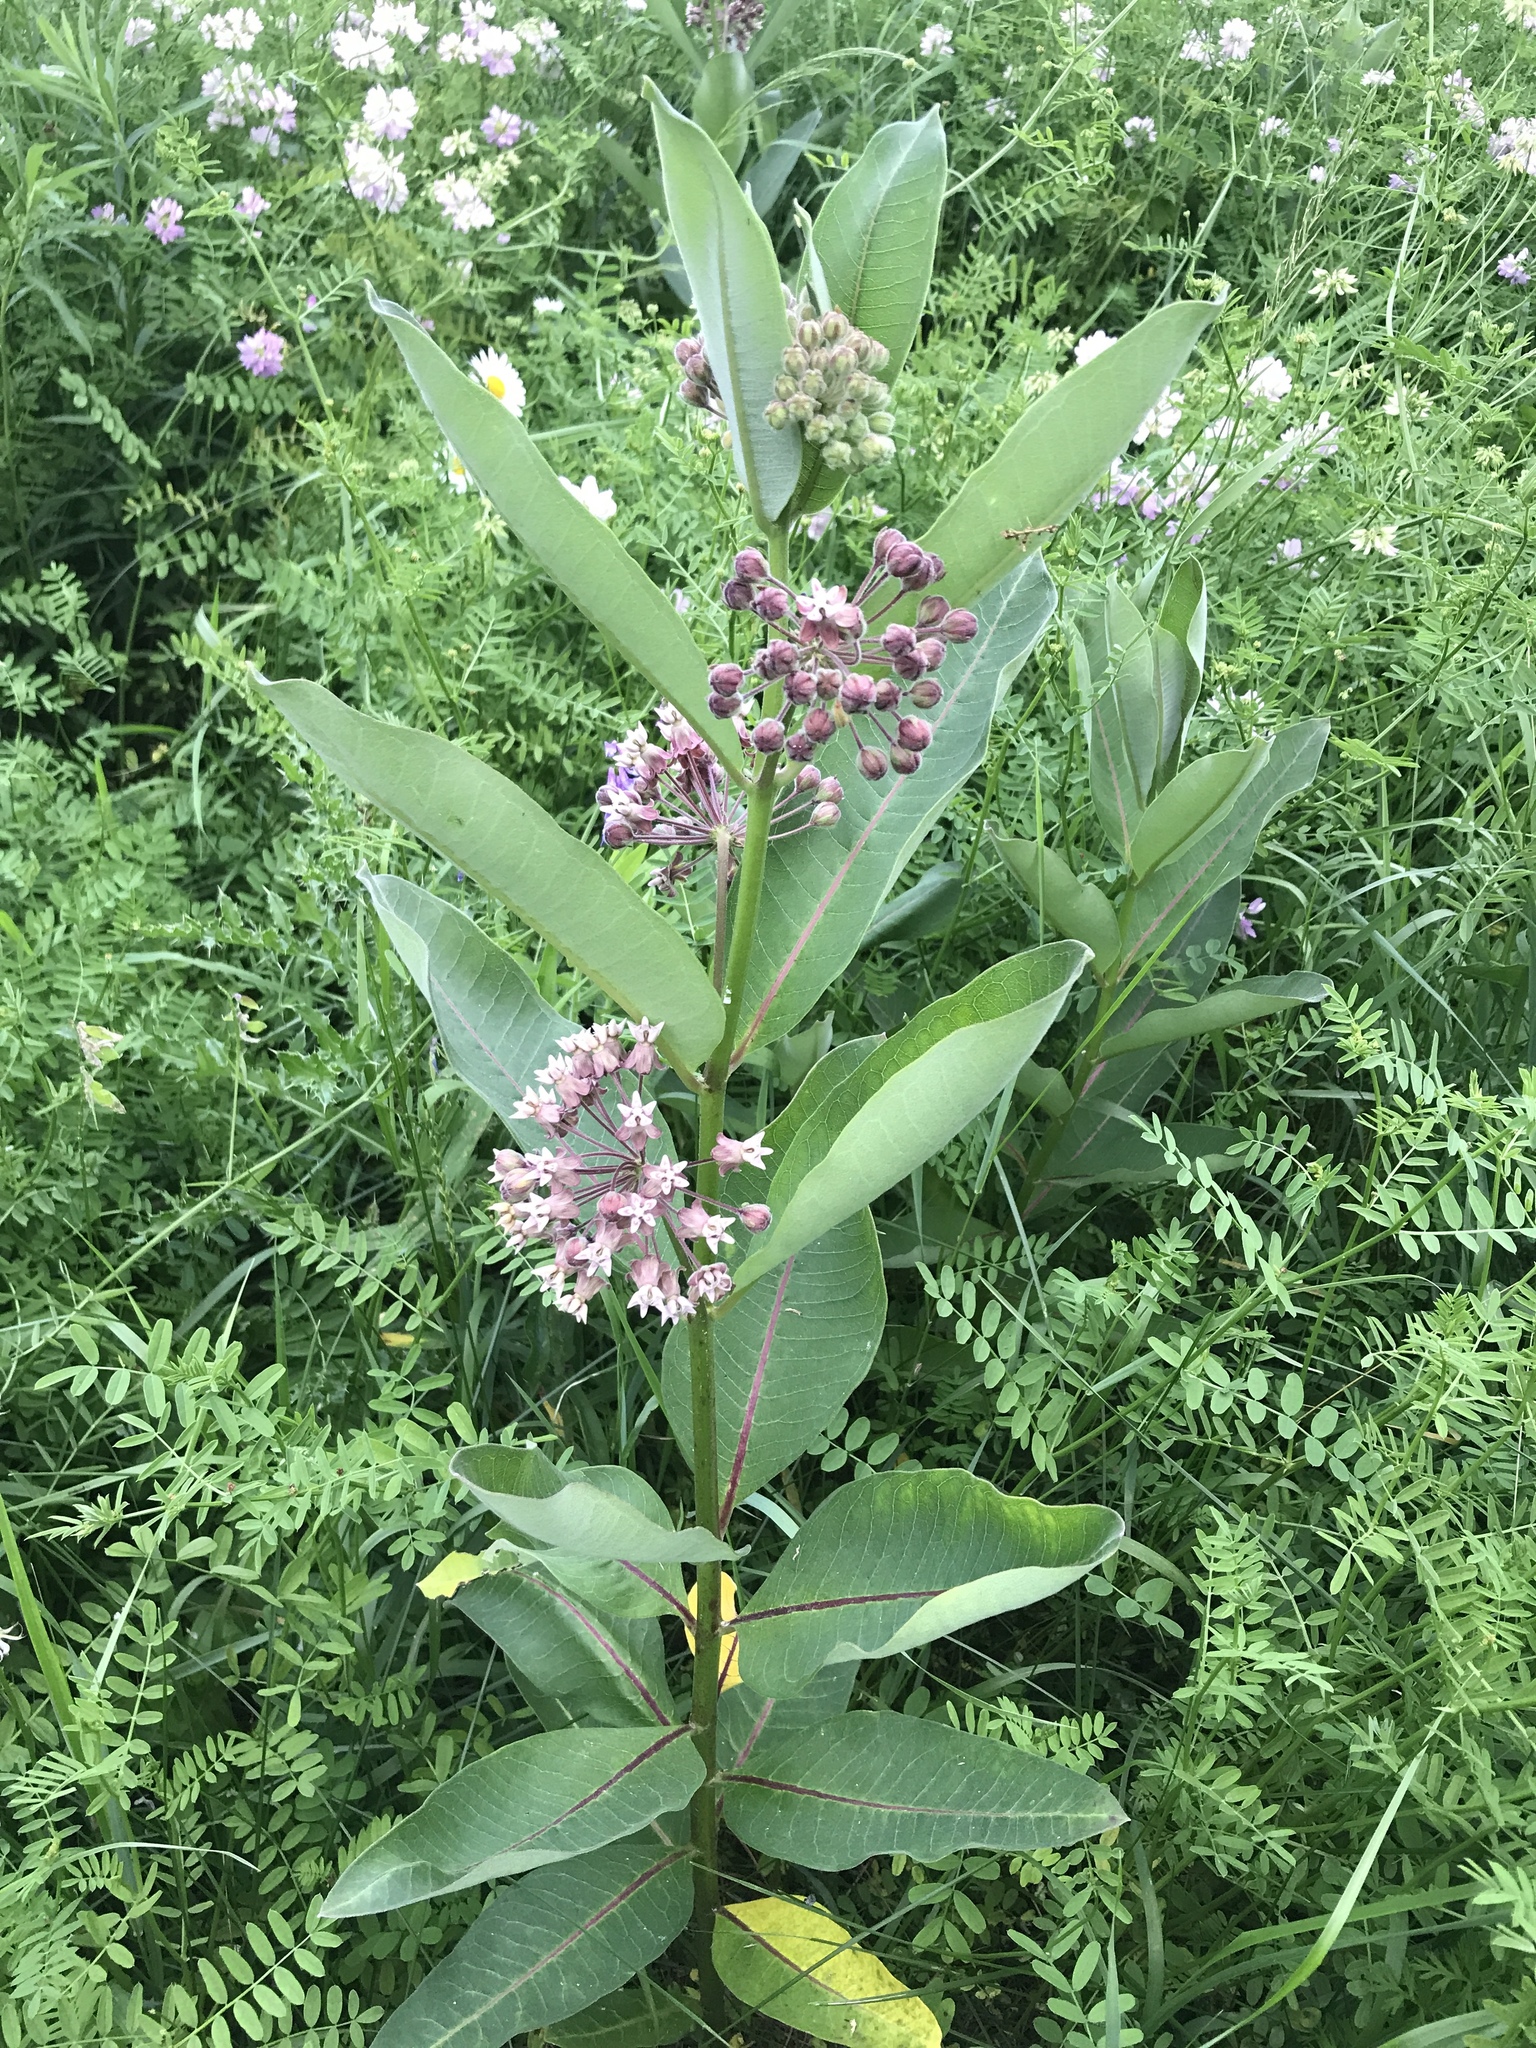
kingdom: Plantae
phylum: Tracheophyta
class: Magnoliopsida
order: Gentianales
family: Apocynaceae
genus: Asclepias
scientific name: Asclepias syriaca
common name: Common milkweed
